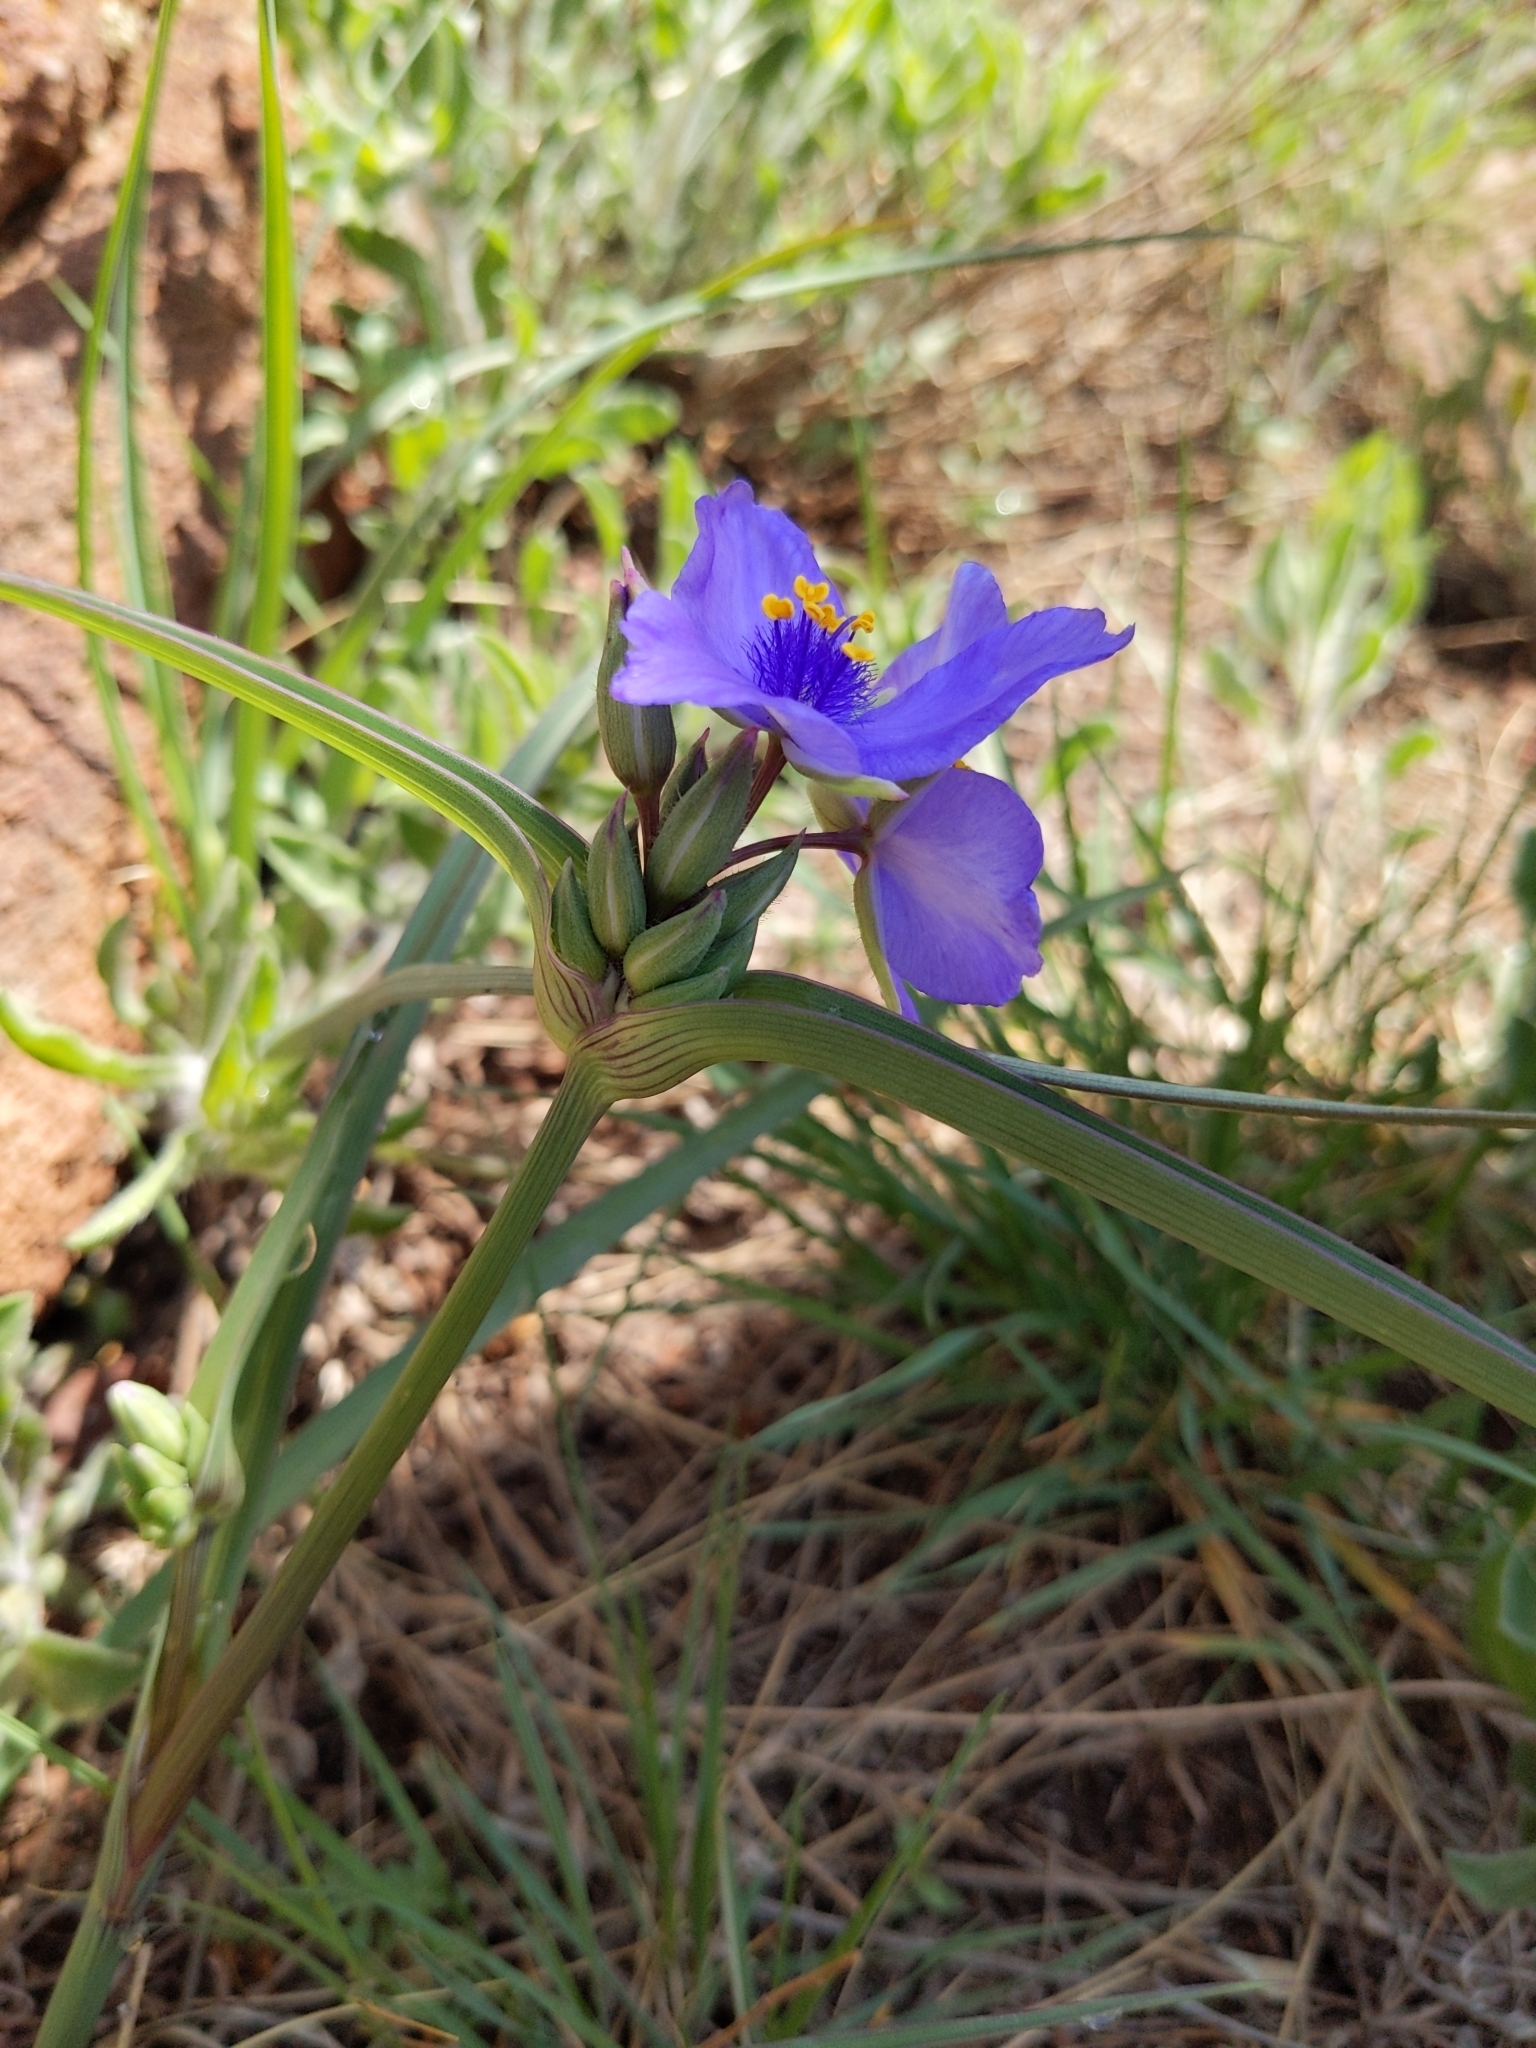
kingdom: Plantae
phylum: Tracheophyta
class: Liliopsida
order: Commelinales
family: Commelinaceae
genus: Tradescantia
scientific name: Tradescantia occidentalis
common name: Prairie spiderwort
